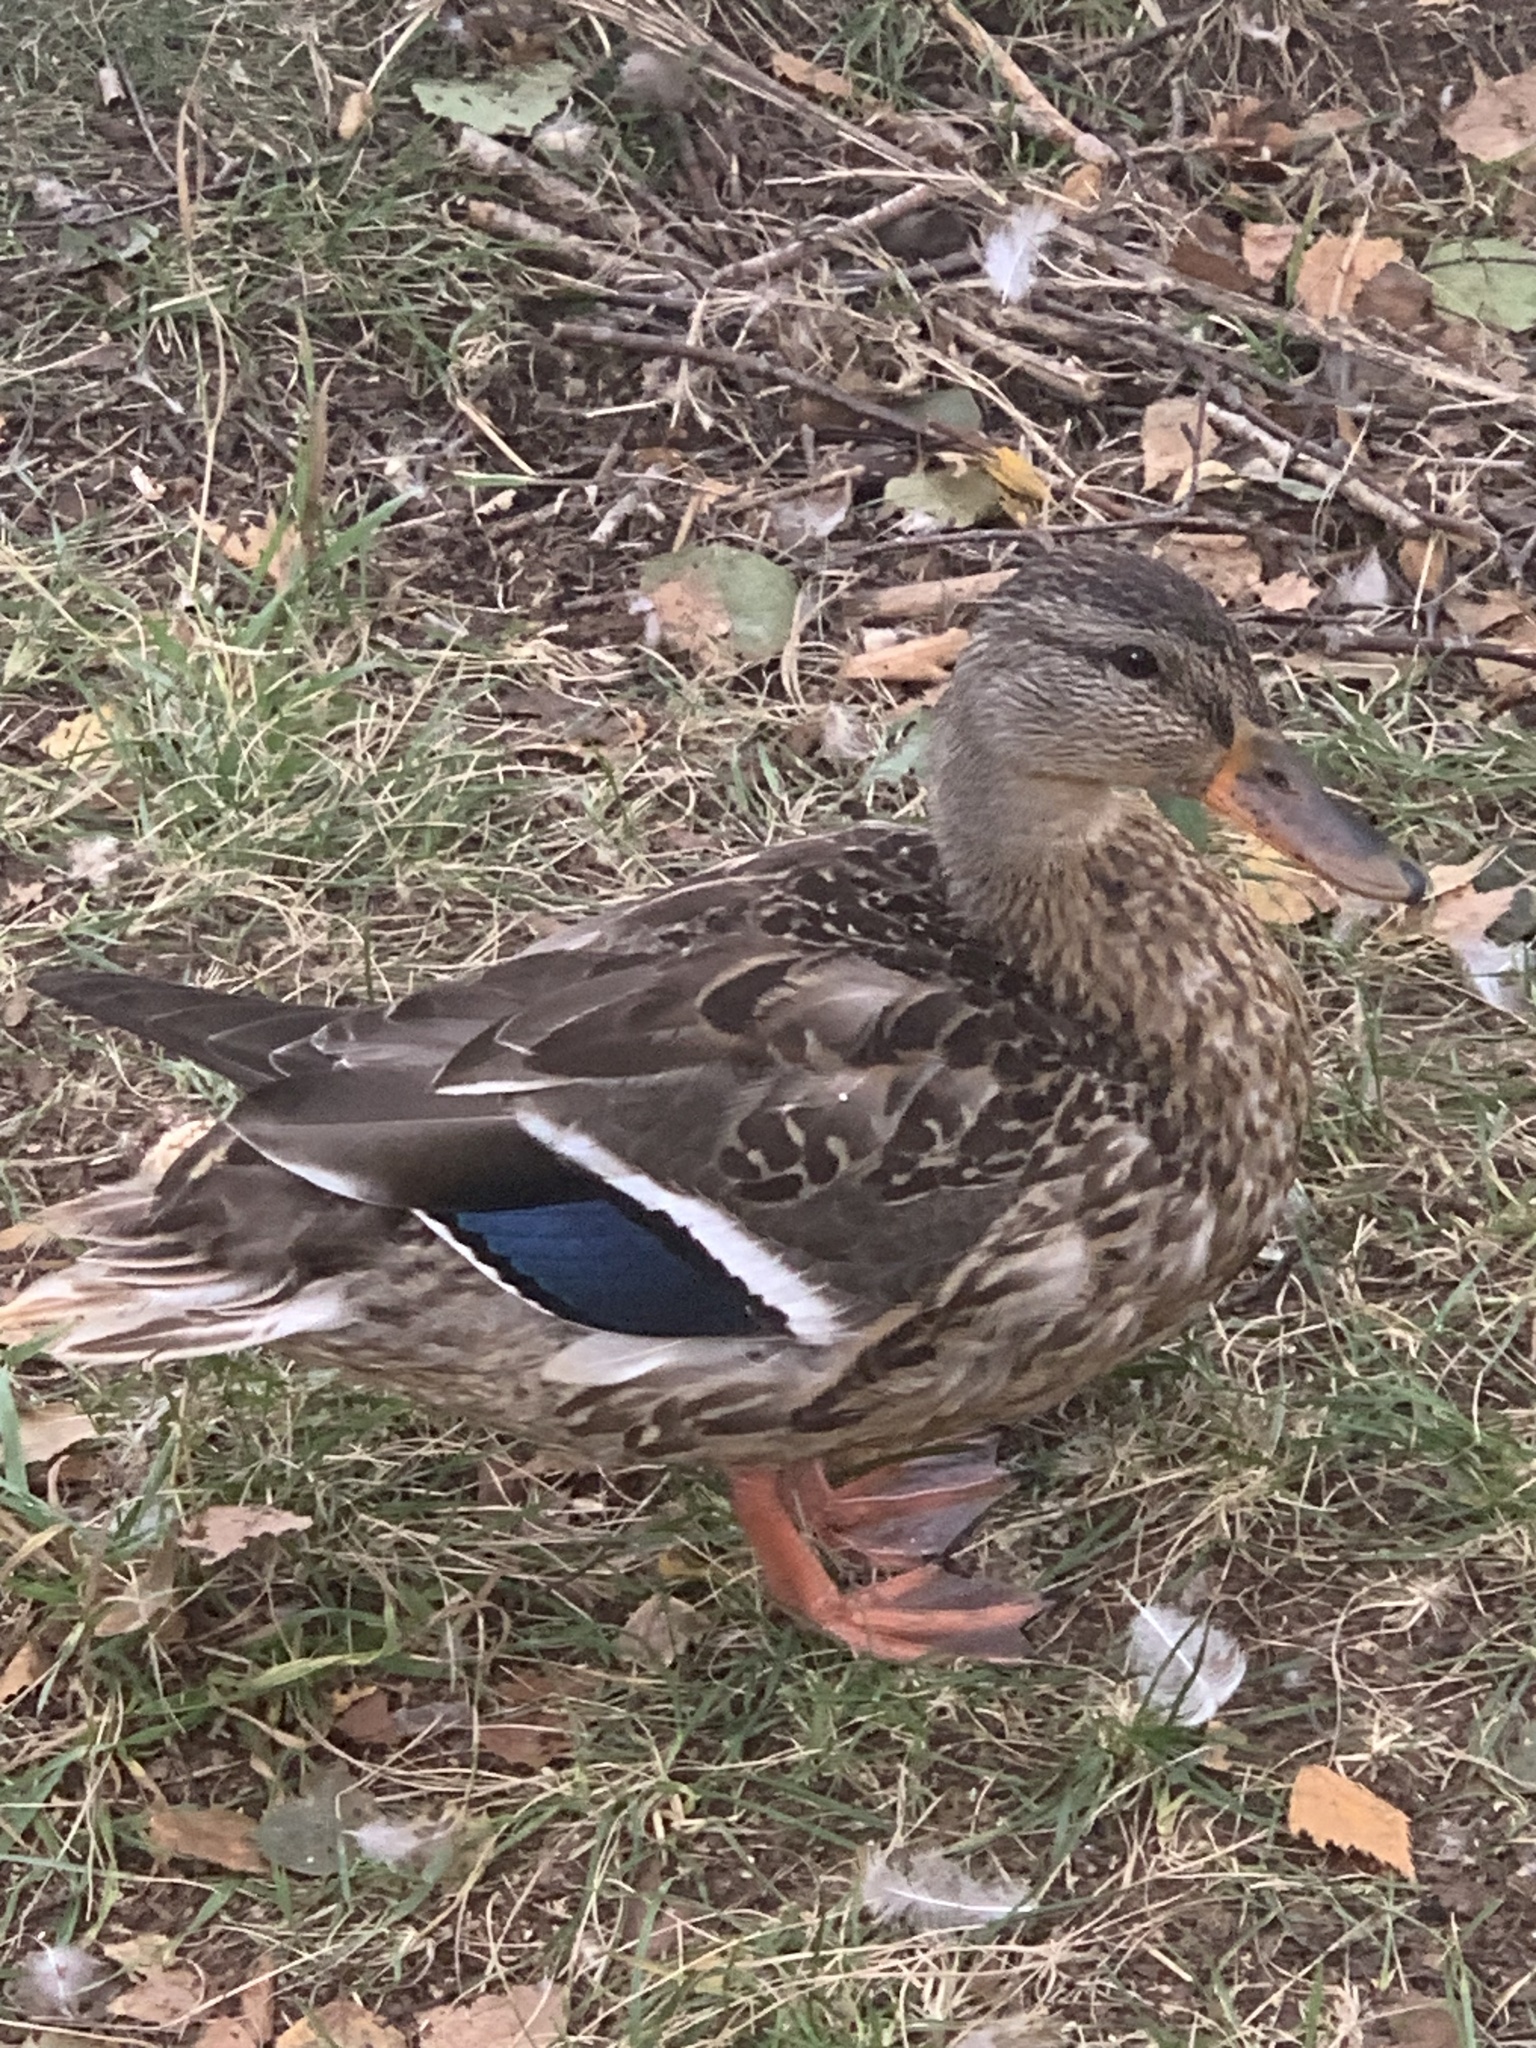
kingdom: Animalia
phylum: Chordata
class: Aves
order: Anseriformes
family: Anatidae
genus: Anas
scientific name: Anas platyrhynchos
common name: Mallard
